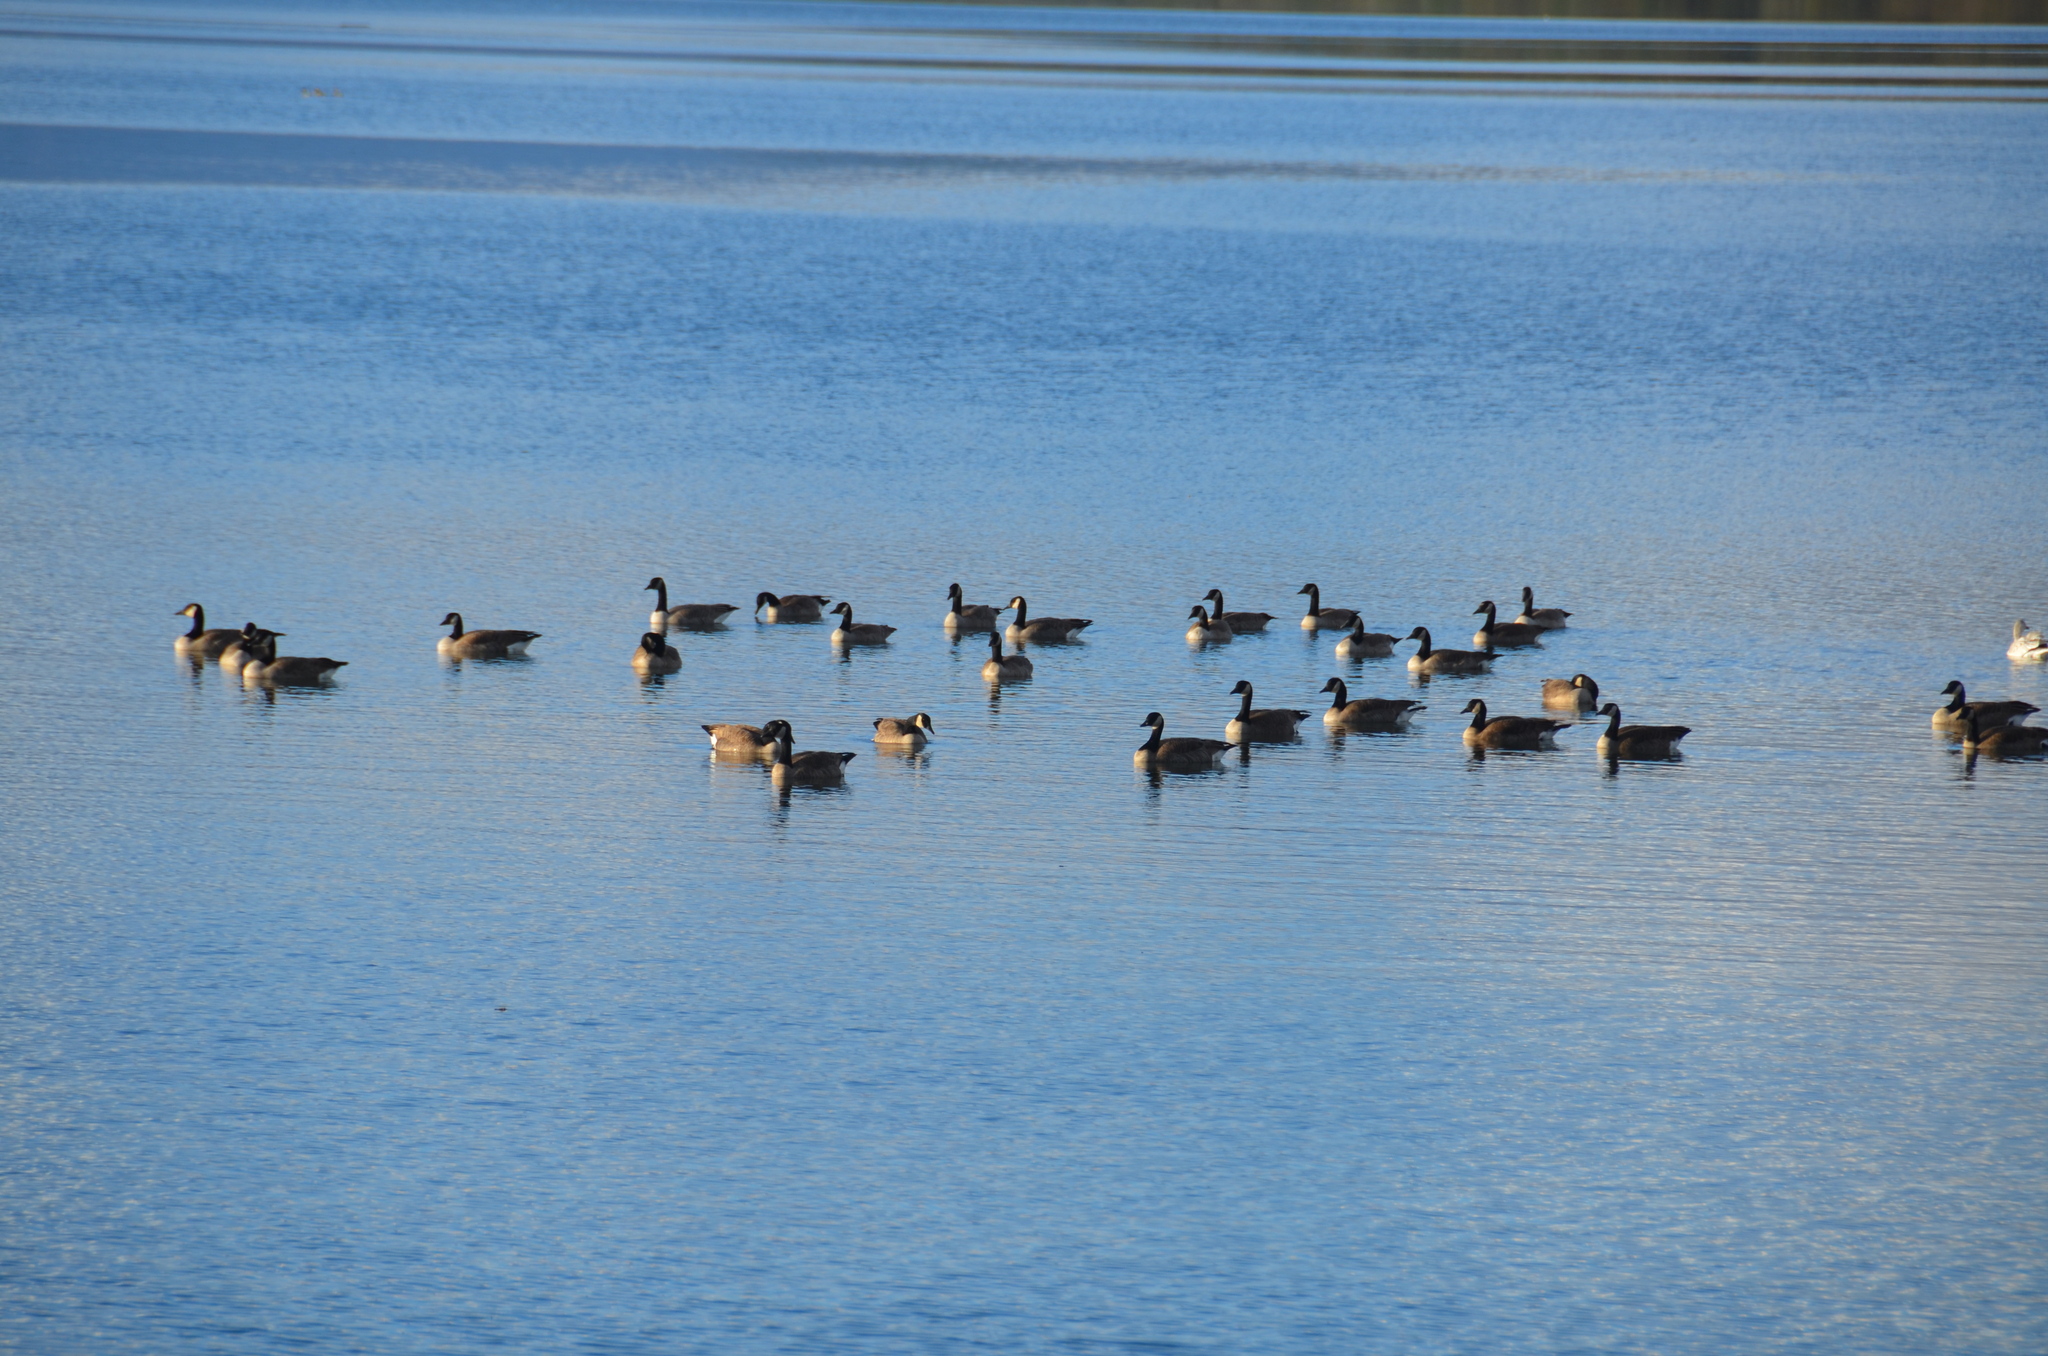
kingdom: Animalia
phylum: Chordata
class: Aves
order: Anseriformes
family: Anatidae
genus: Anser
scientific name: Anser caerulescens
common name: Snow goose
